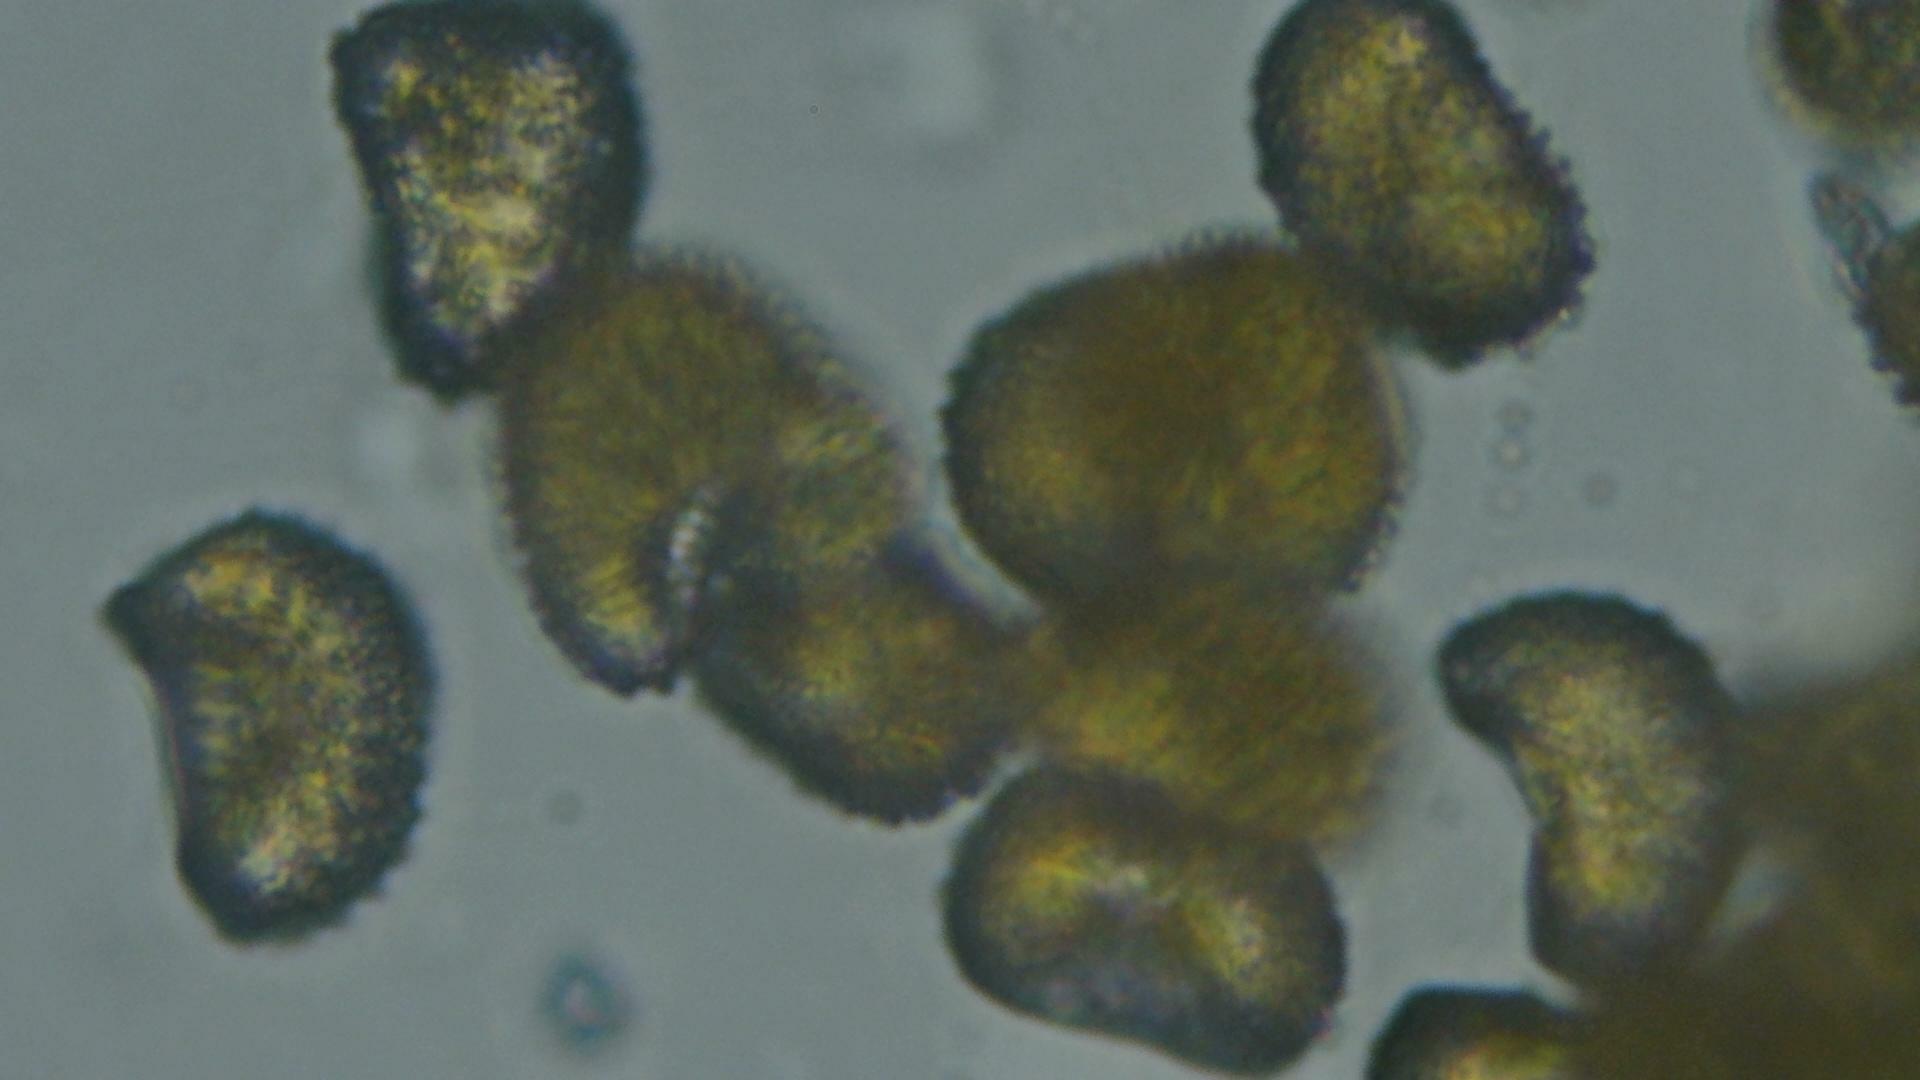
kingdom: Fungi
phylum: Basidiomycota
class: Pucciniomycetes
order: Pucciniales
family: Zaghouaniaceae
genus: Hemileia
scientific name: Hemileia vastatrix
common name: Leaf rust of coffee
